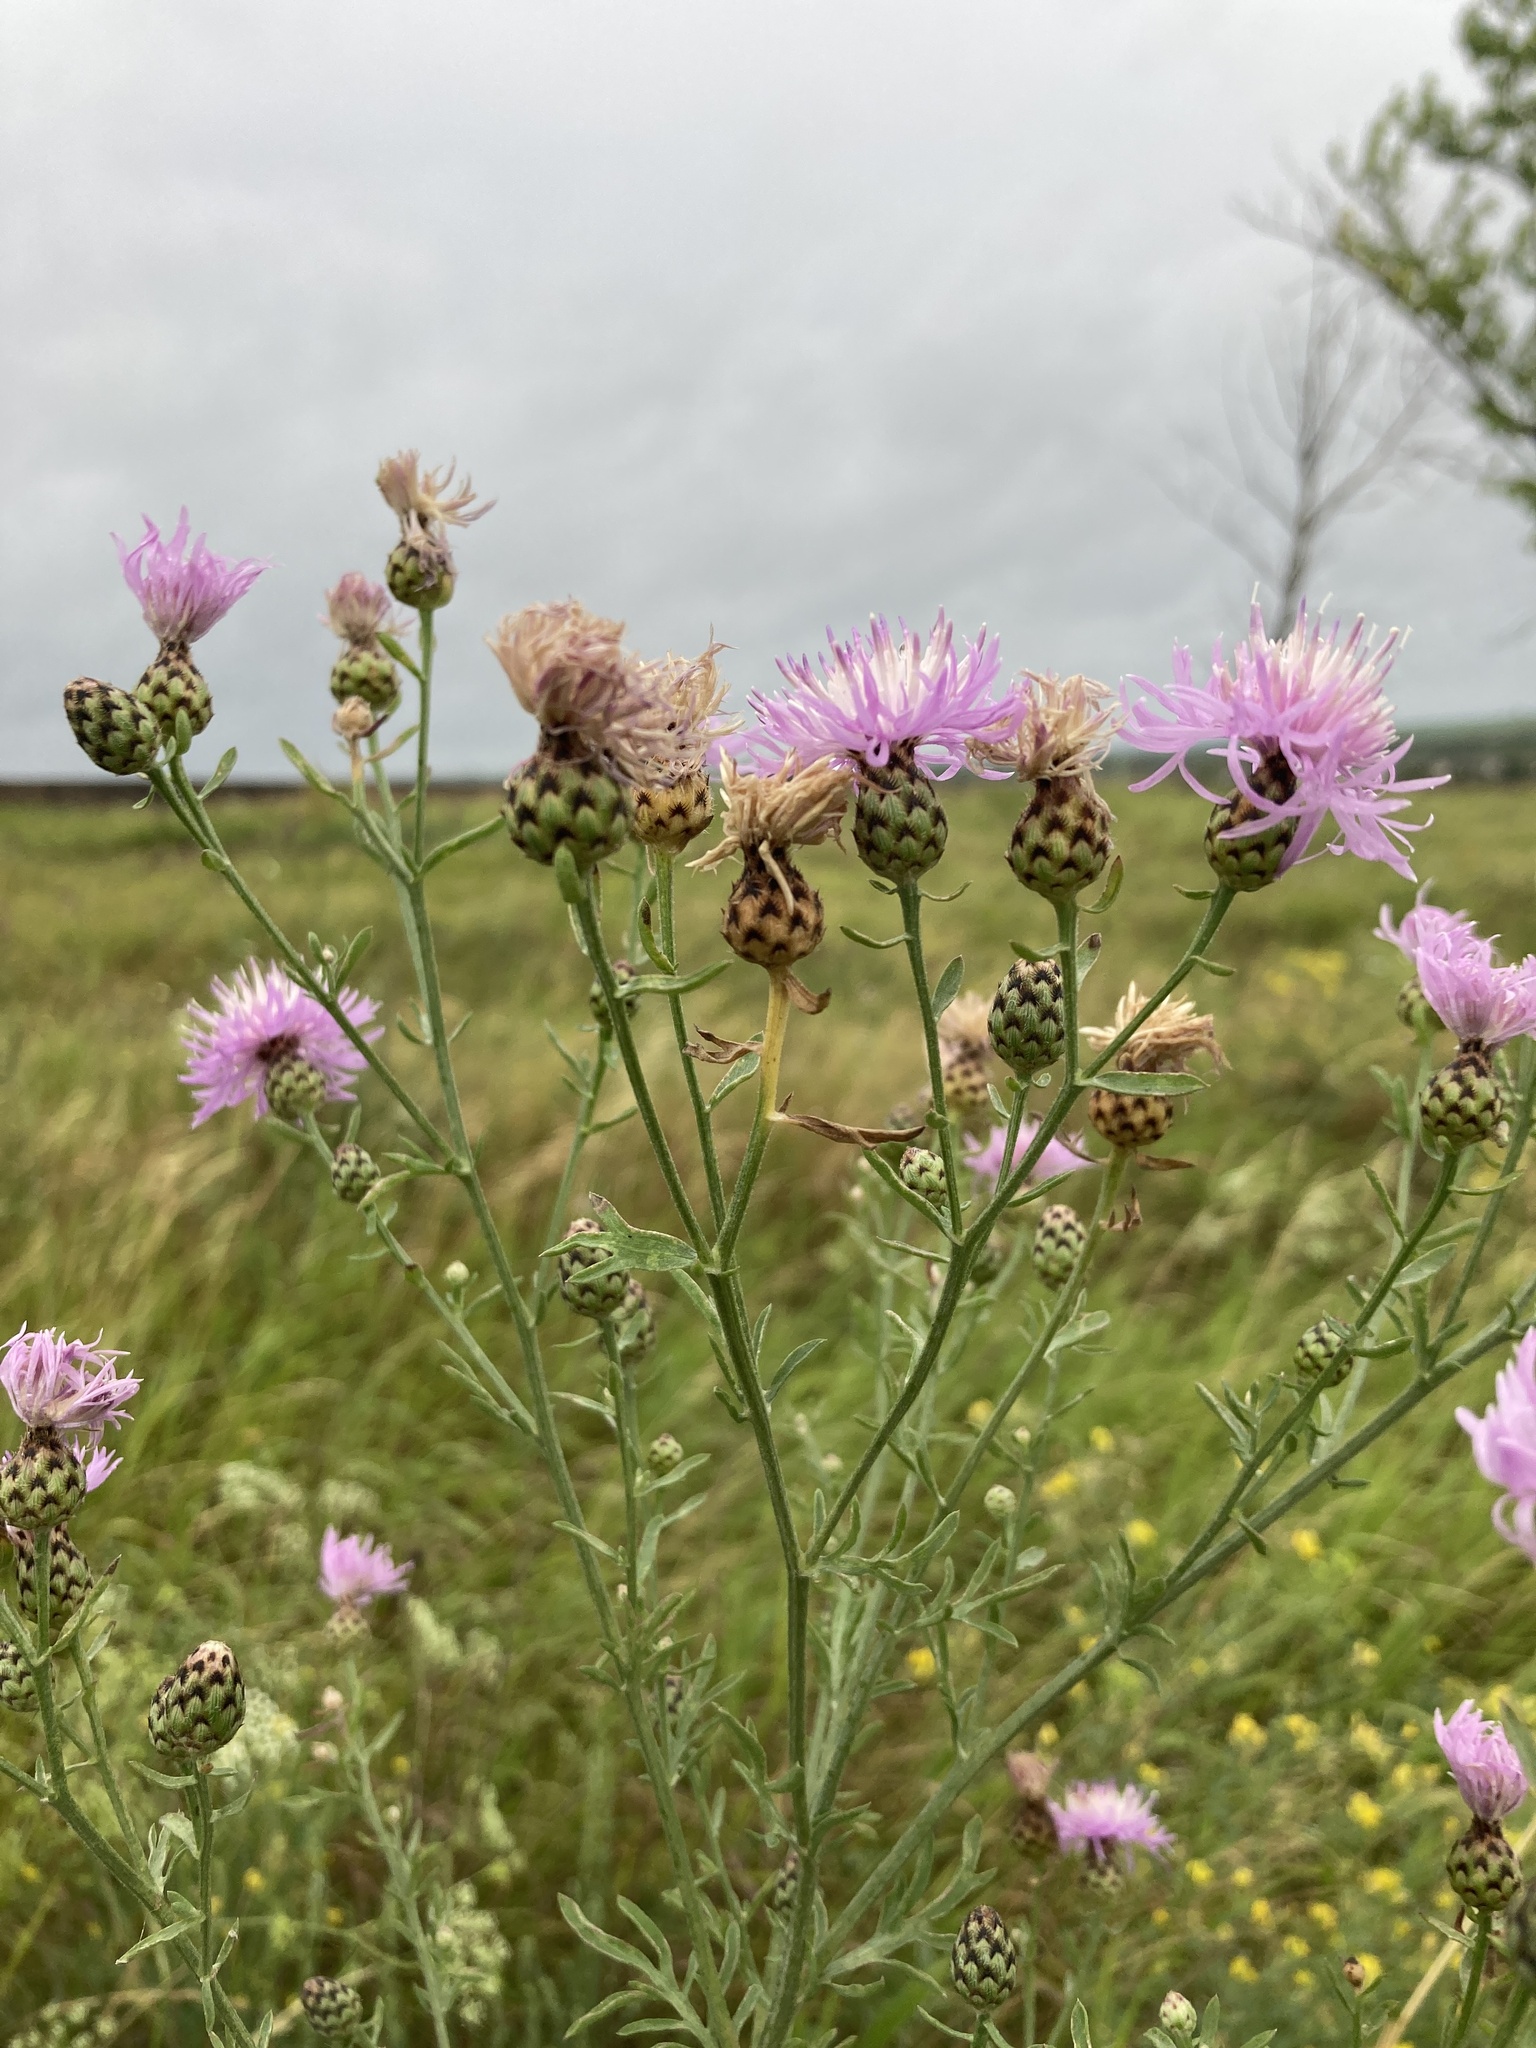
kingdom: Plantae
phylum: Tracheophyta
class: Magnoliopsida
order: Asterales
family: Asteraceae
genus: Centaurea
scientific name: Centaurea stoebe
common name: Spotted knapweed
